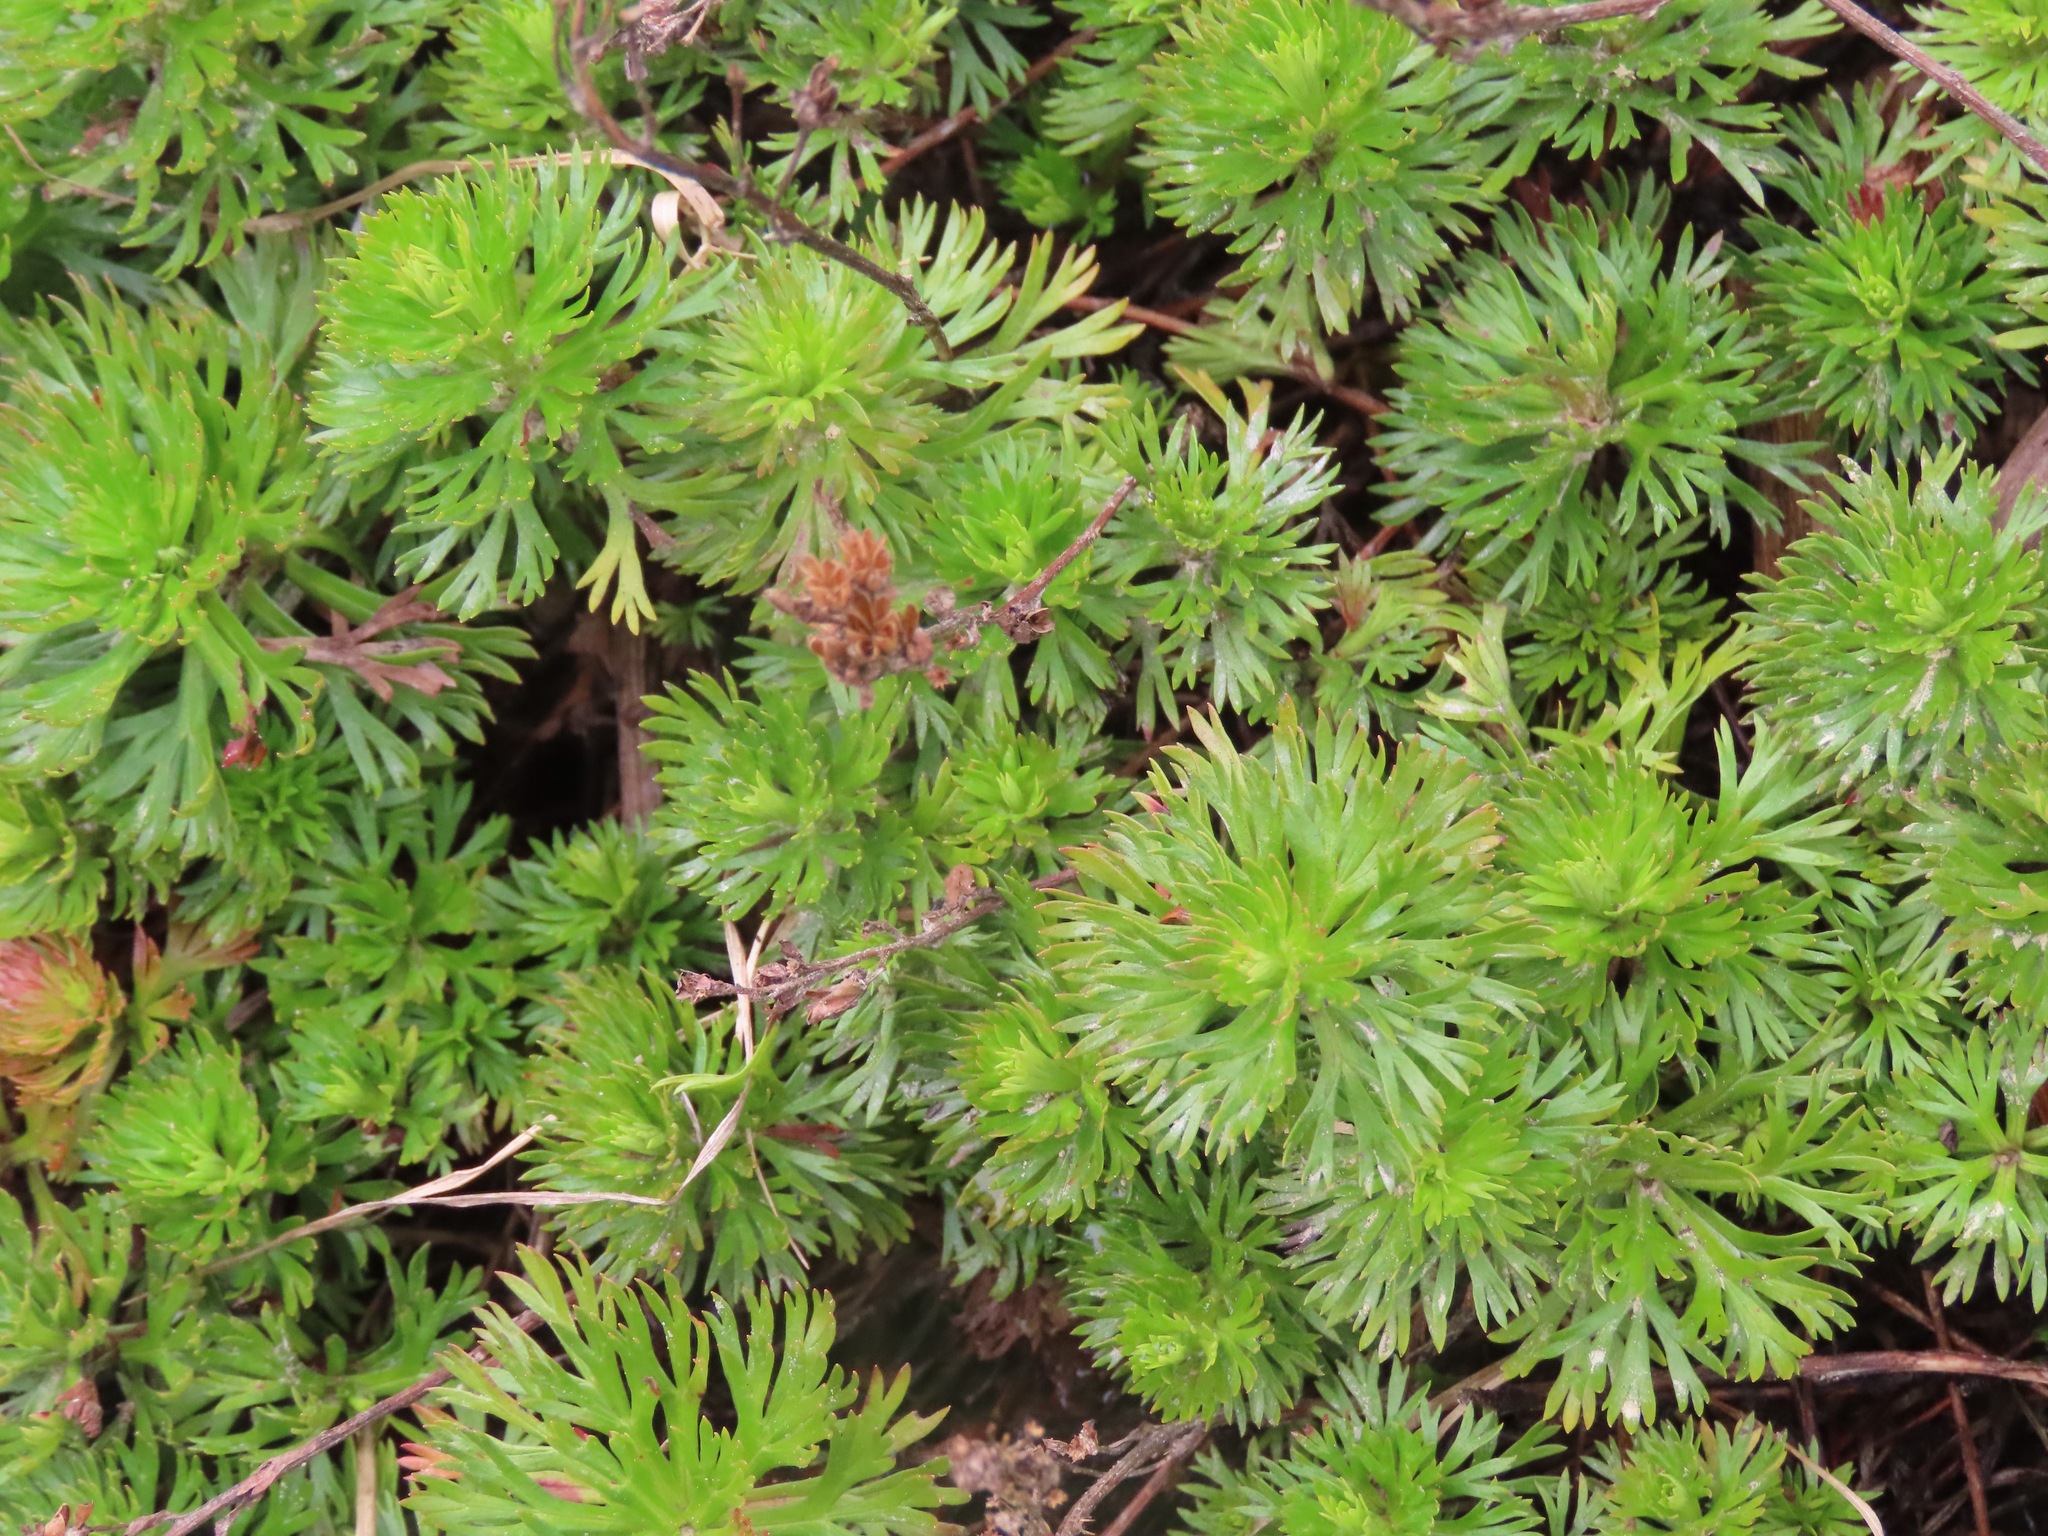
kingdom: Plantae
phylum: Tracheophyta
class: Magnoliopsida
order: Rosales
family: Rosaceae
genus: Luetkea
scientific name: Luetkea pectinata
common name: Partridgefoot
